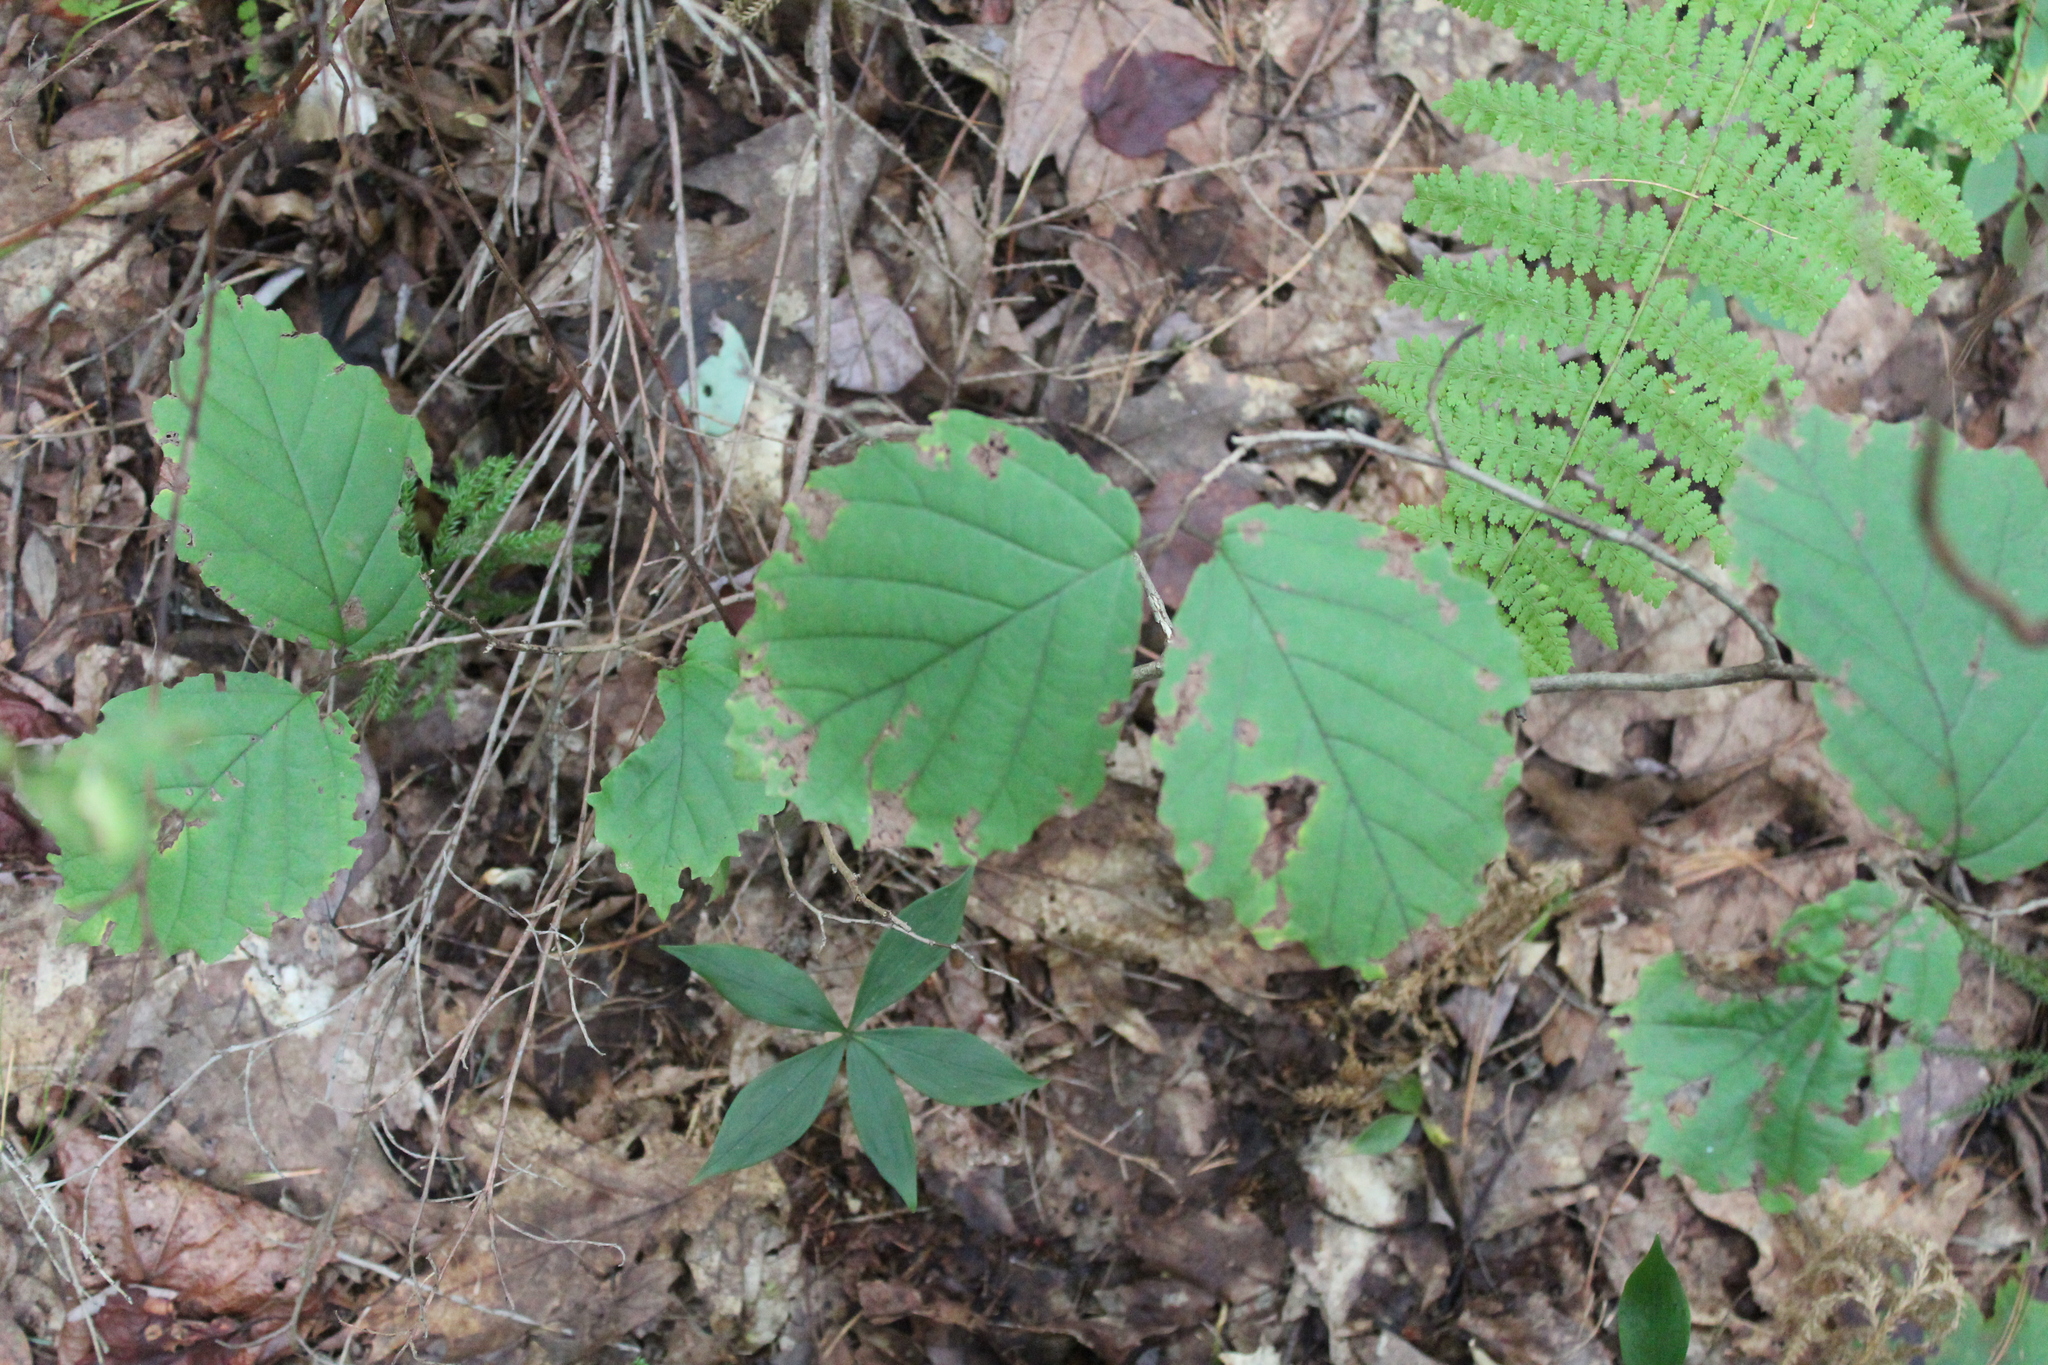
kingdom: Plantae
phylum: Tracheophyta
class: Magnoliopsida
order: Saxifragales
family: Hamamelidaceae
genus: Hamamelis
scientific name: Hamamelis virginiana
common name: Witch-hazel
